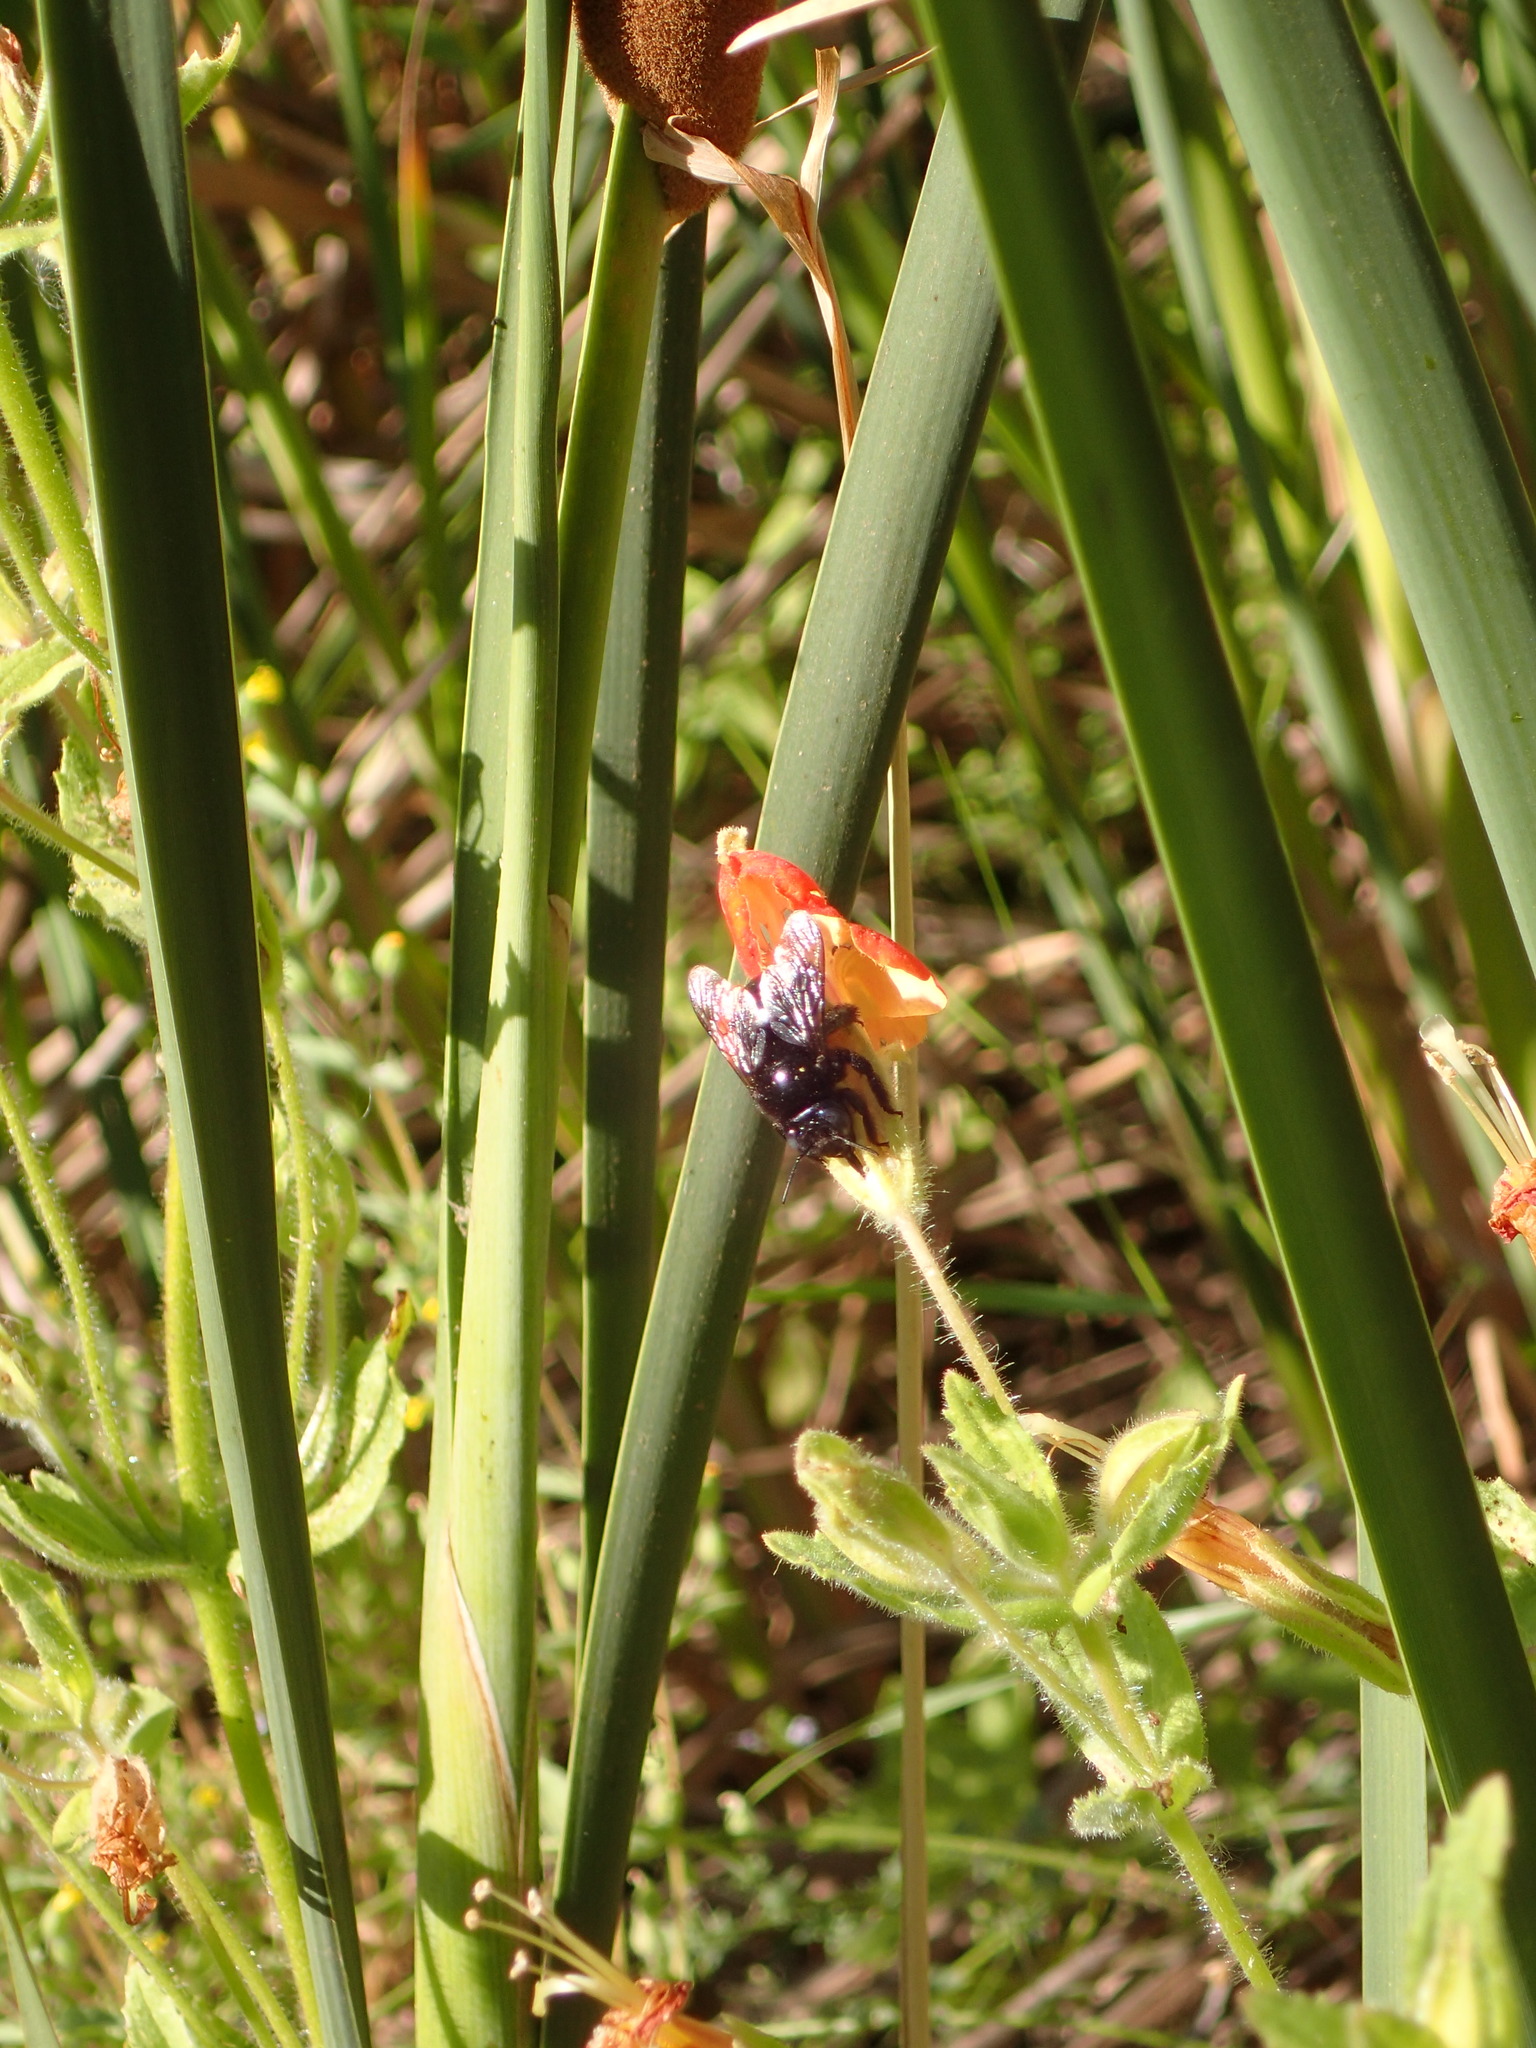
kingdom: Animalia
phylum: Arthropoda
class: Insecta
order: Hymenoptera
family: Apidae
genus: Xylocopa
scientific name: Xylocopa tabaniformis
